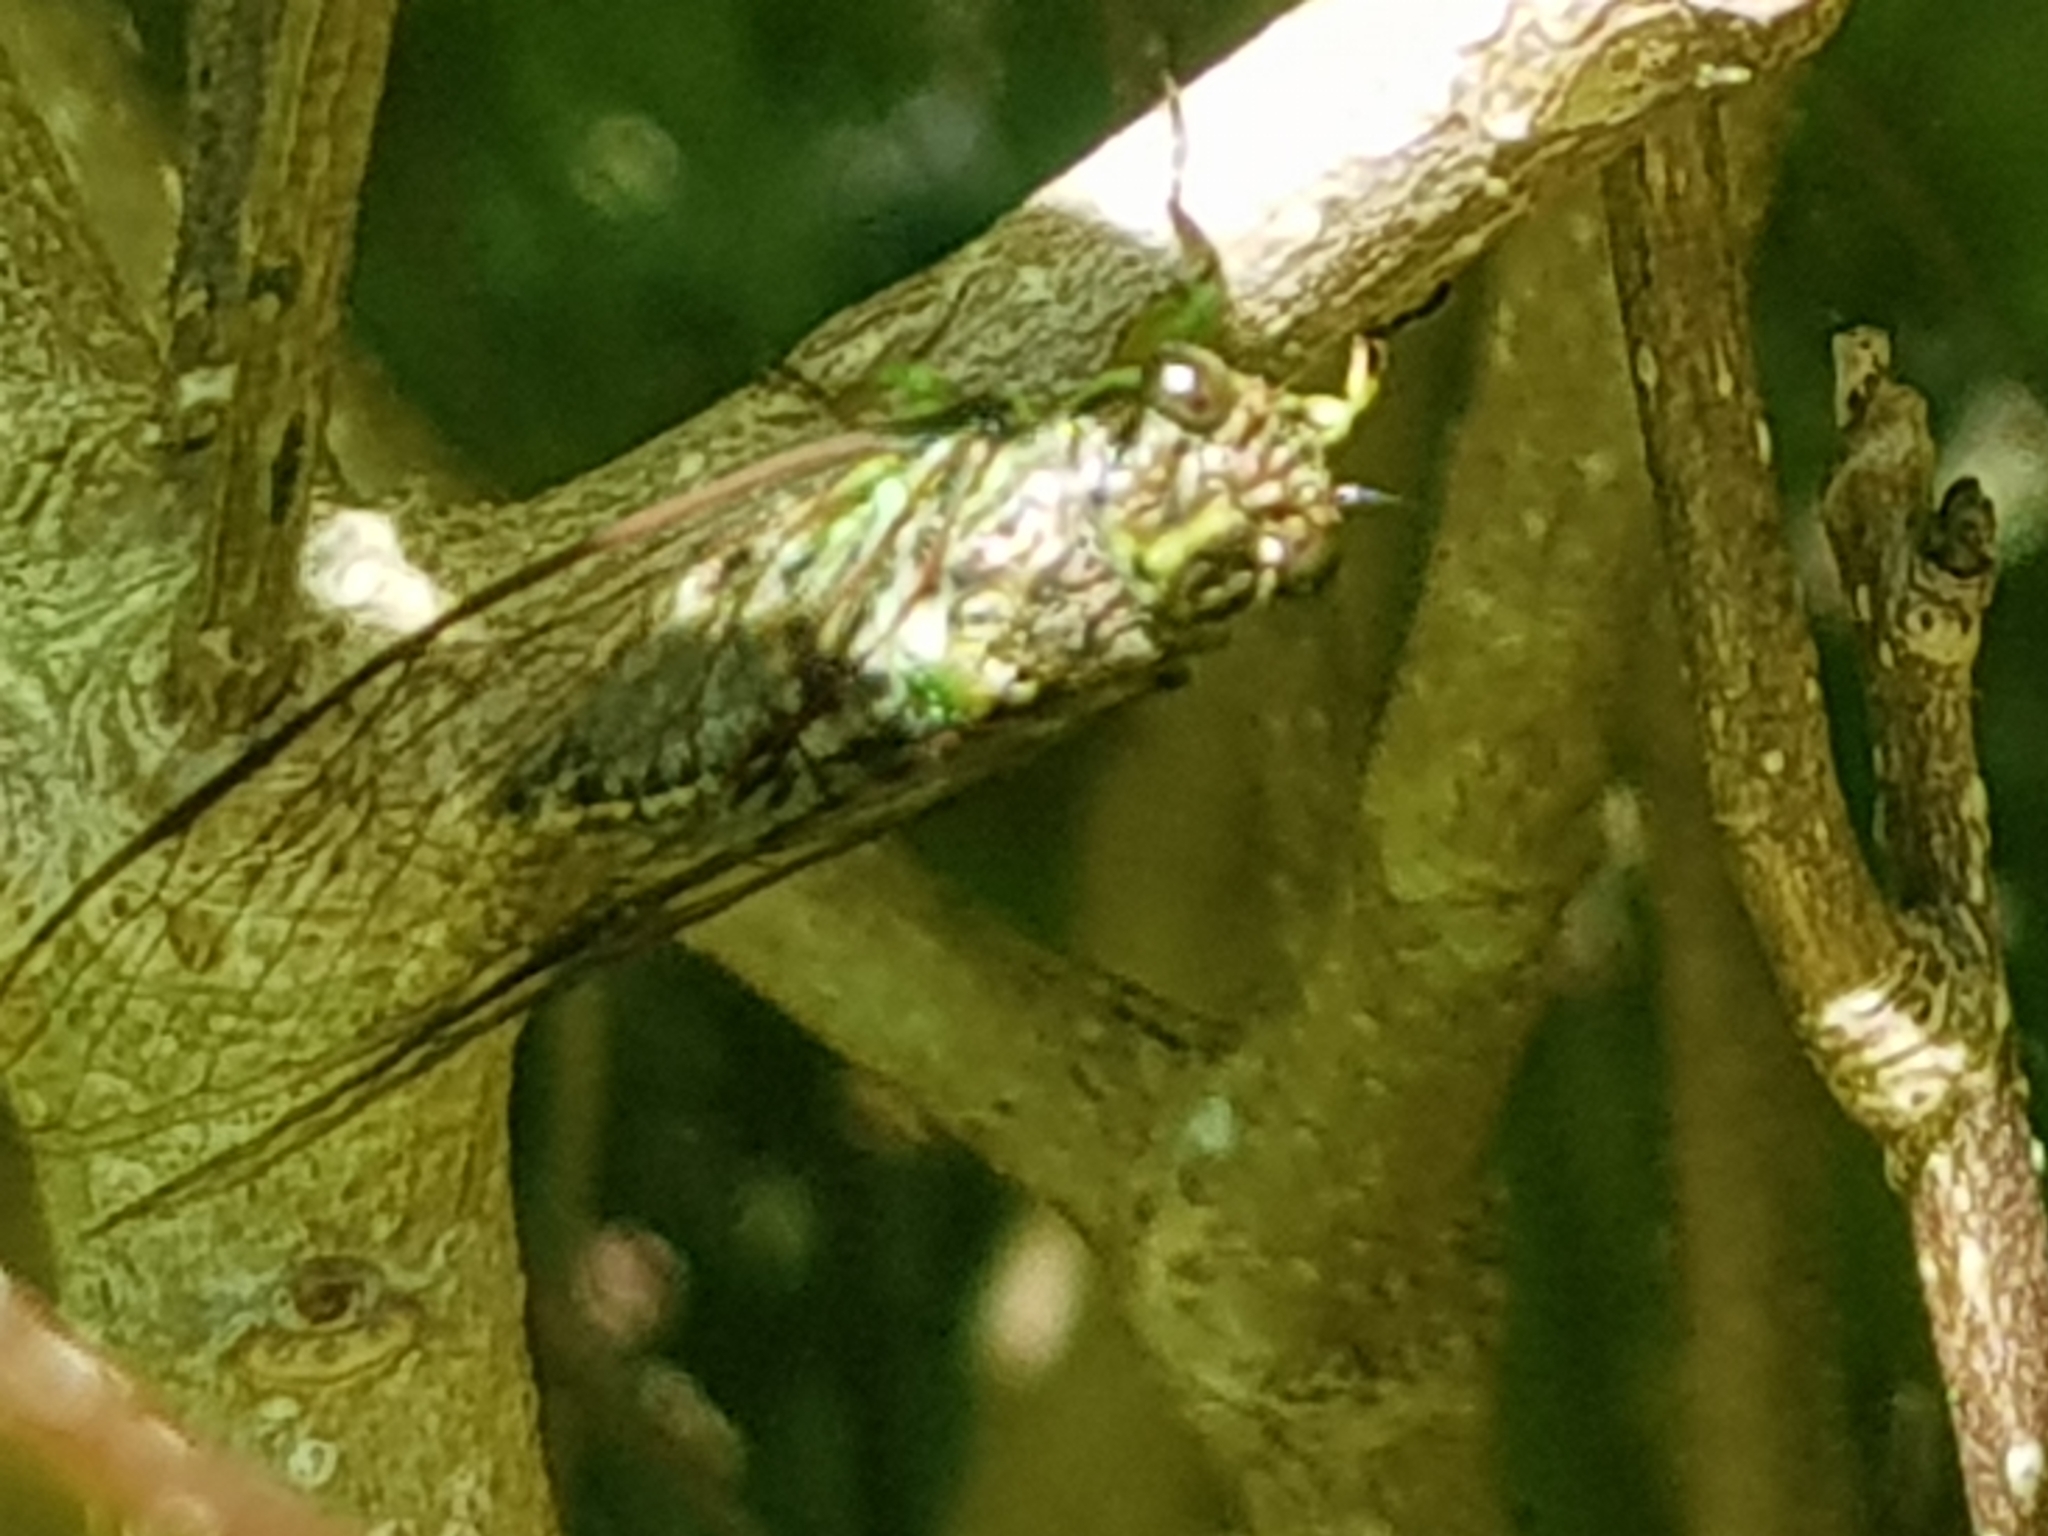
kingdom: Animalia
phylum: Arthropoda
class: Insecta
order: Hemiptera
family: Cicadidae
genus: Kikihia
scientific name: Kikihia scutellaris
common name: Lesser bronze cicada
